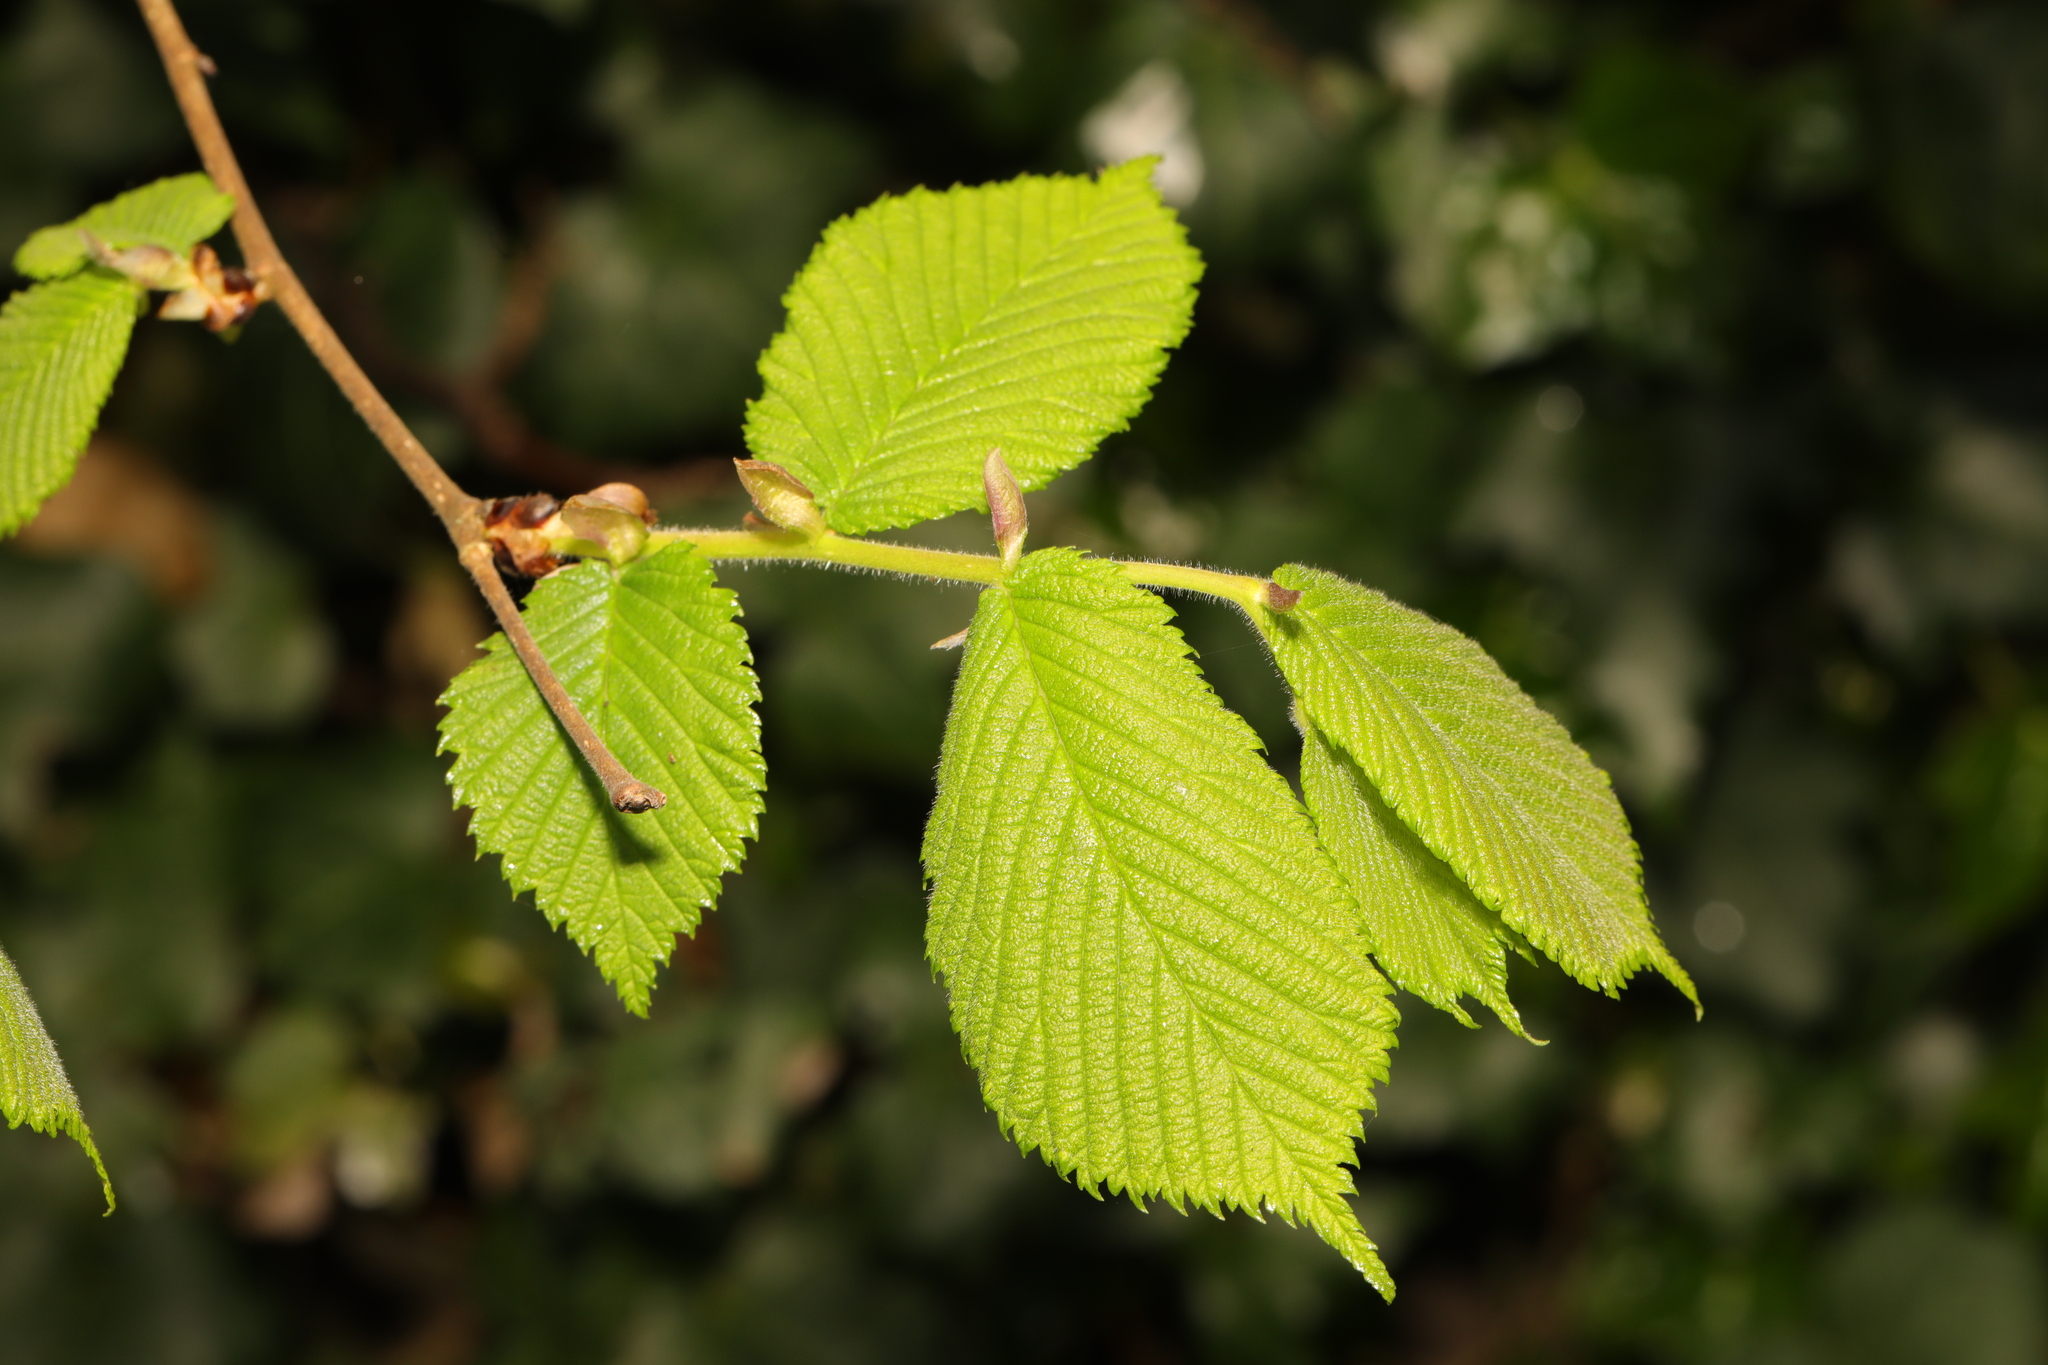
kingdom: Plantae
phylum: Tracheophyta
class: Magnoliopsida
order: Rosales
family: Ulmaceae
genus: Ulmus
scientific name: Ulmus glabra
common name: Wych elm
